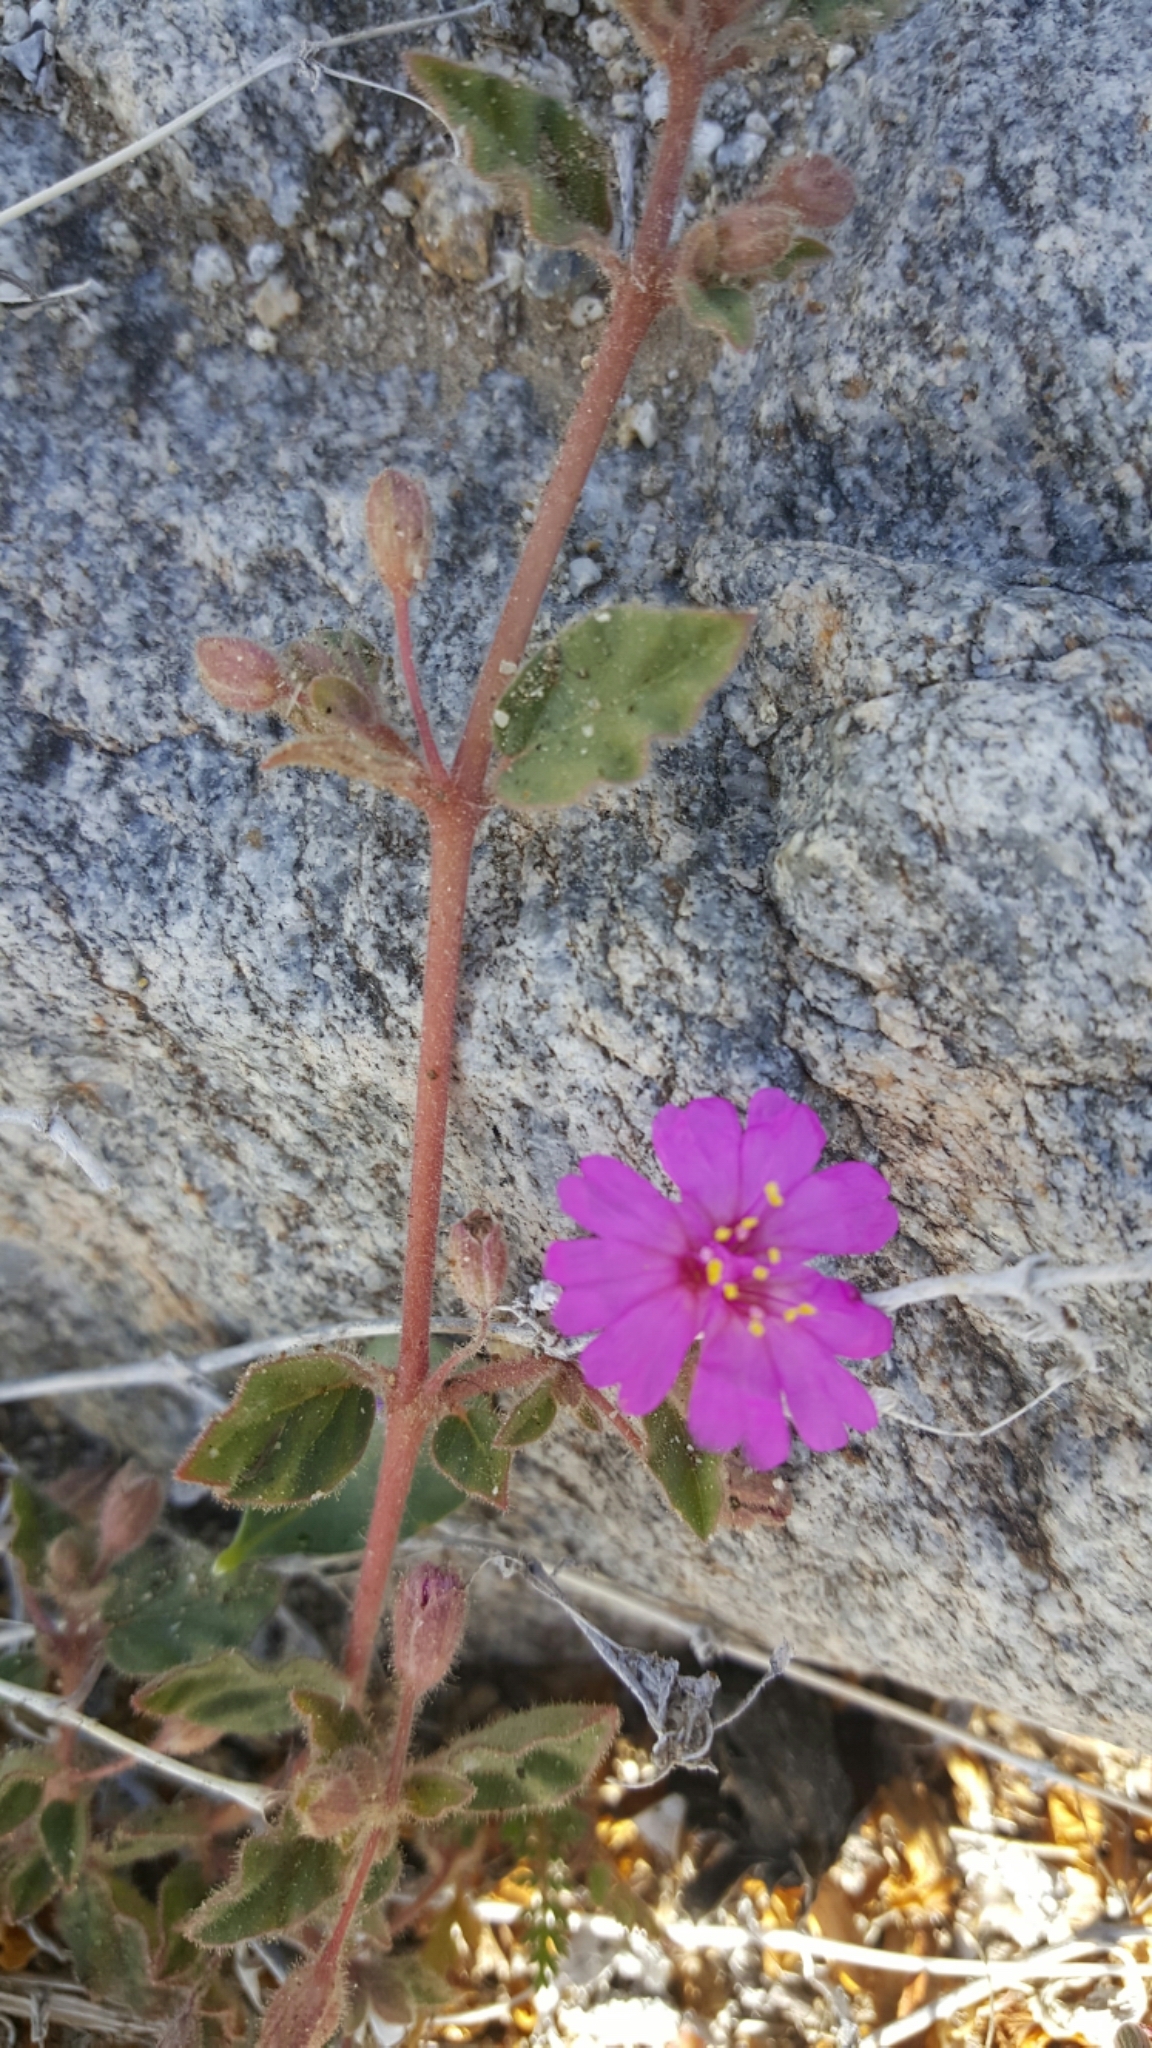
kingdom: Plantae
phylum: Tracheophyta
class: Magnoliopsida
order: Caryophyllales
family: Nyctaginaceae
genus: Allionia
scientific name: Allionia incarnata
